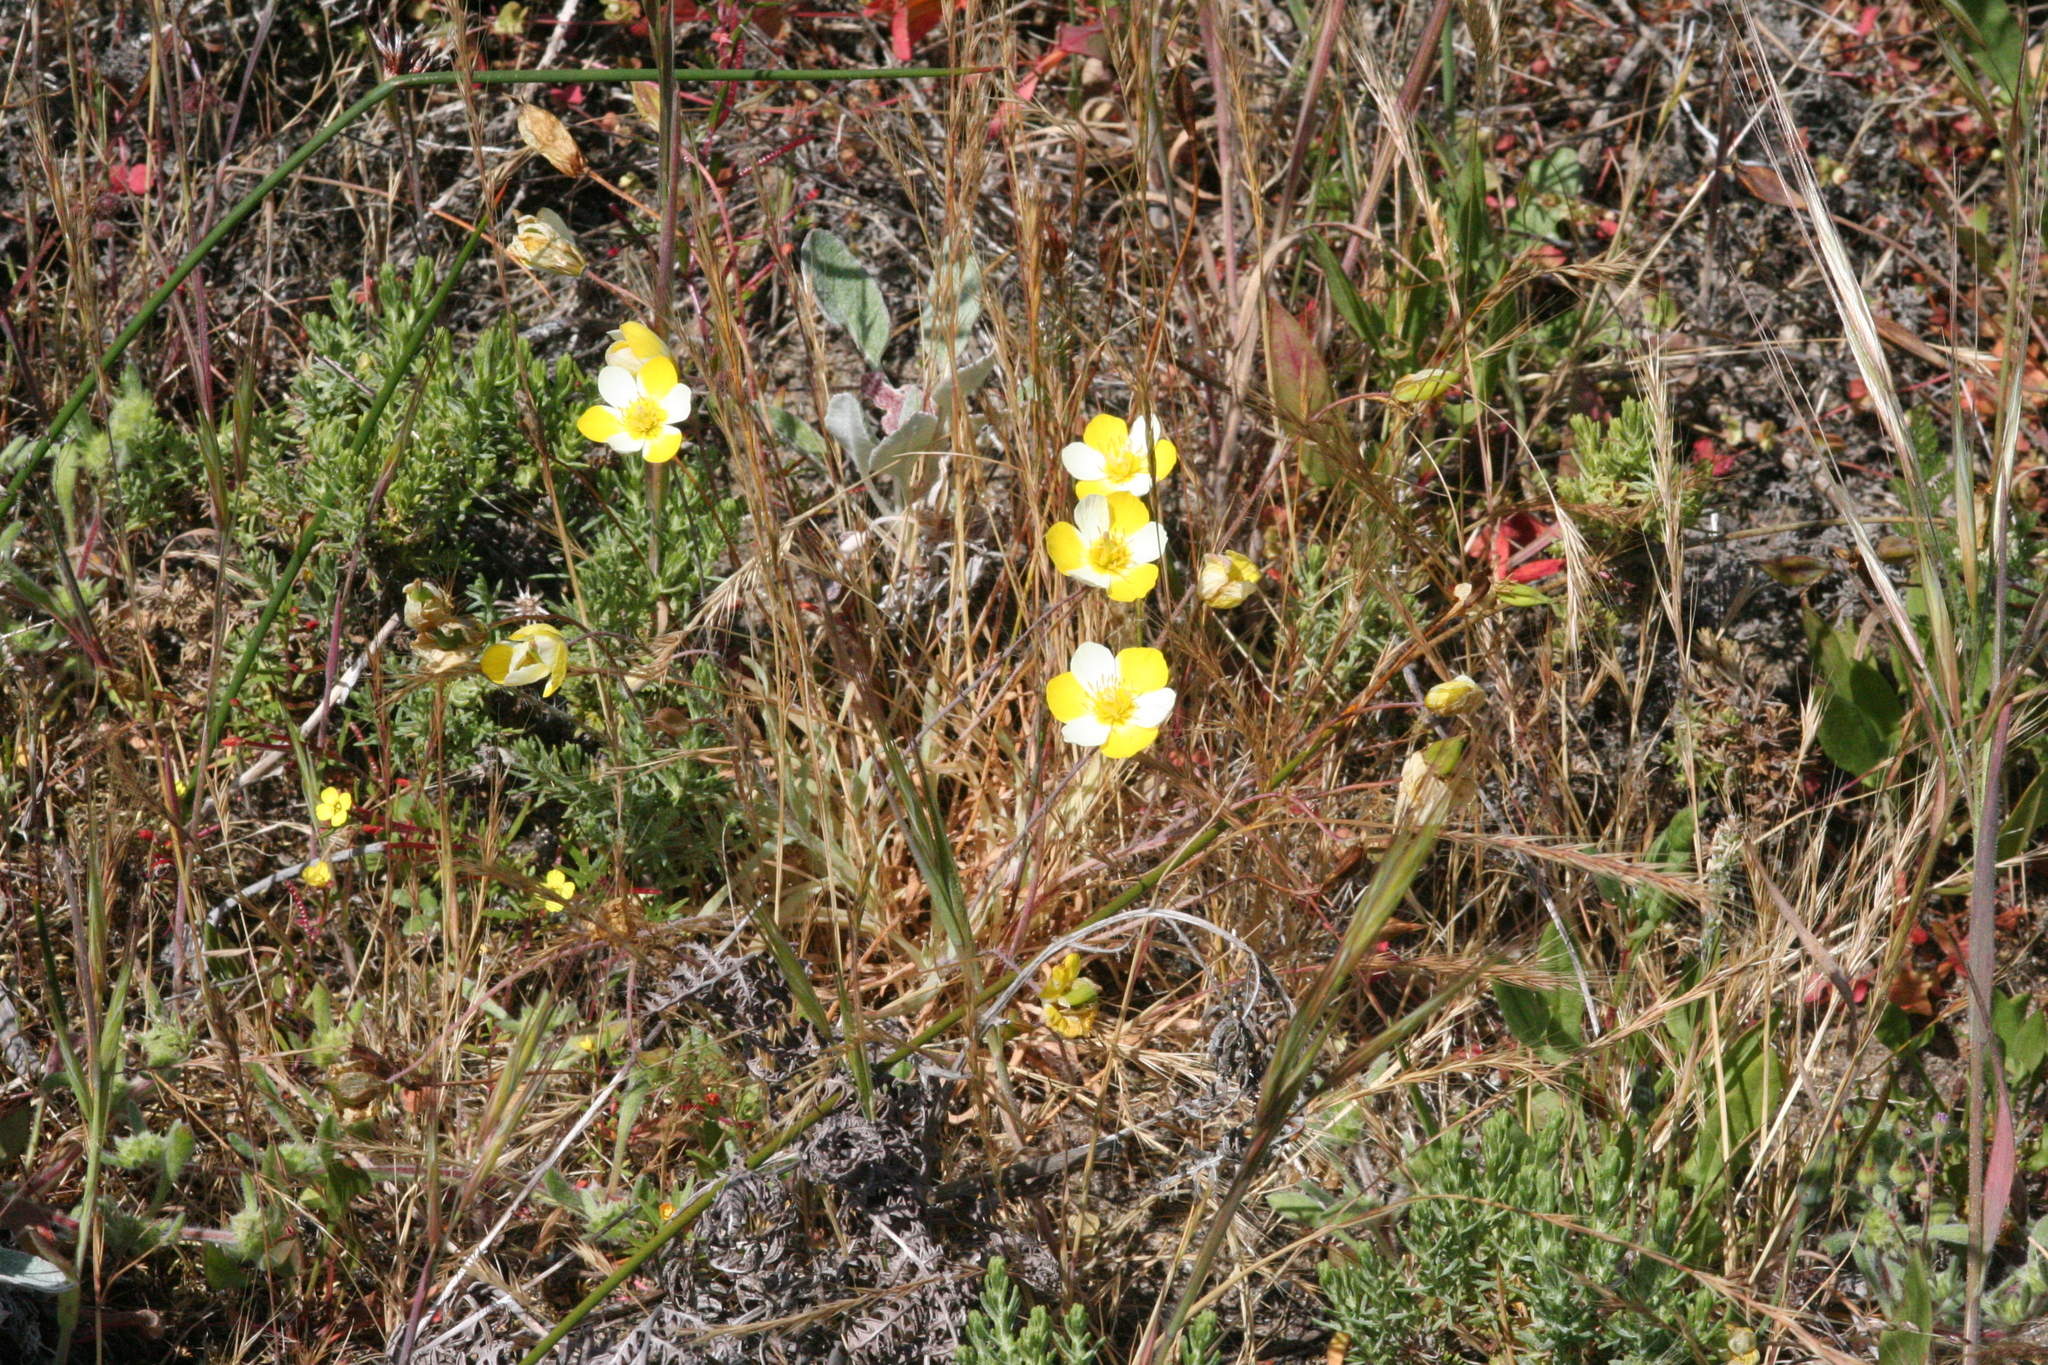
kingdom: Plantae
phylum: Tracheophyta
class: Magnoliopsida
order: Ranunculales
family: Papaveraceae
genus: Platystigma
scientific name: Platystigma lineare
